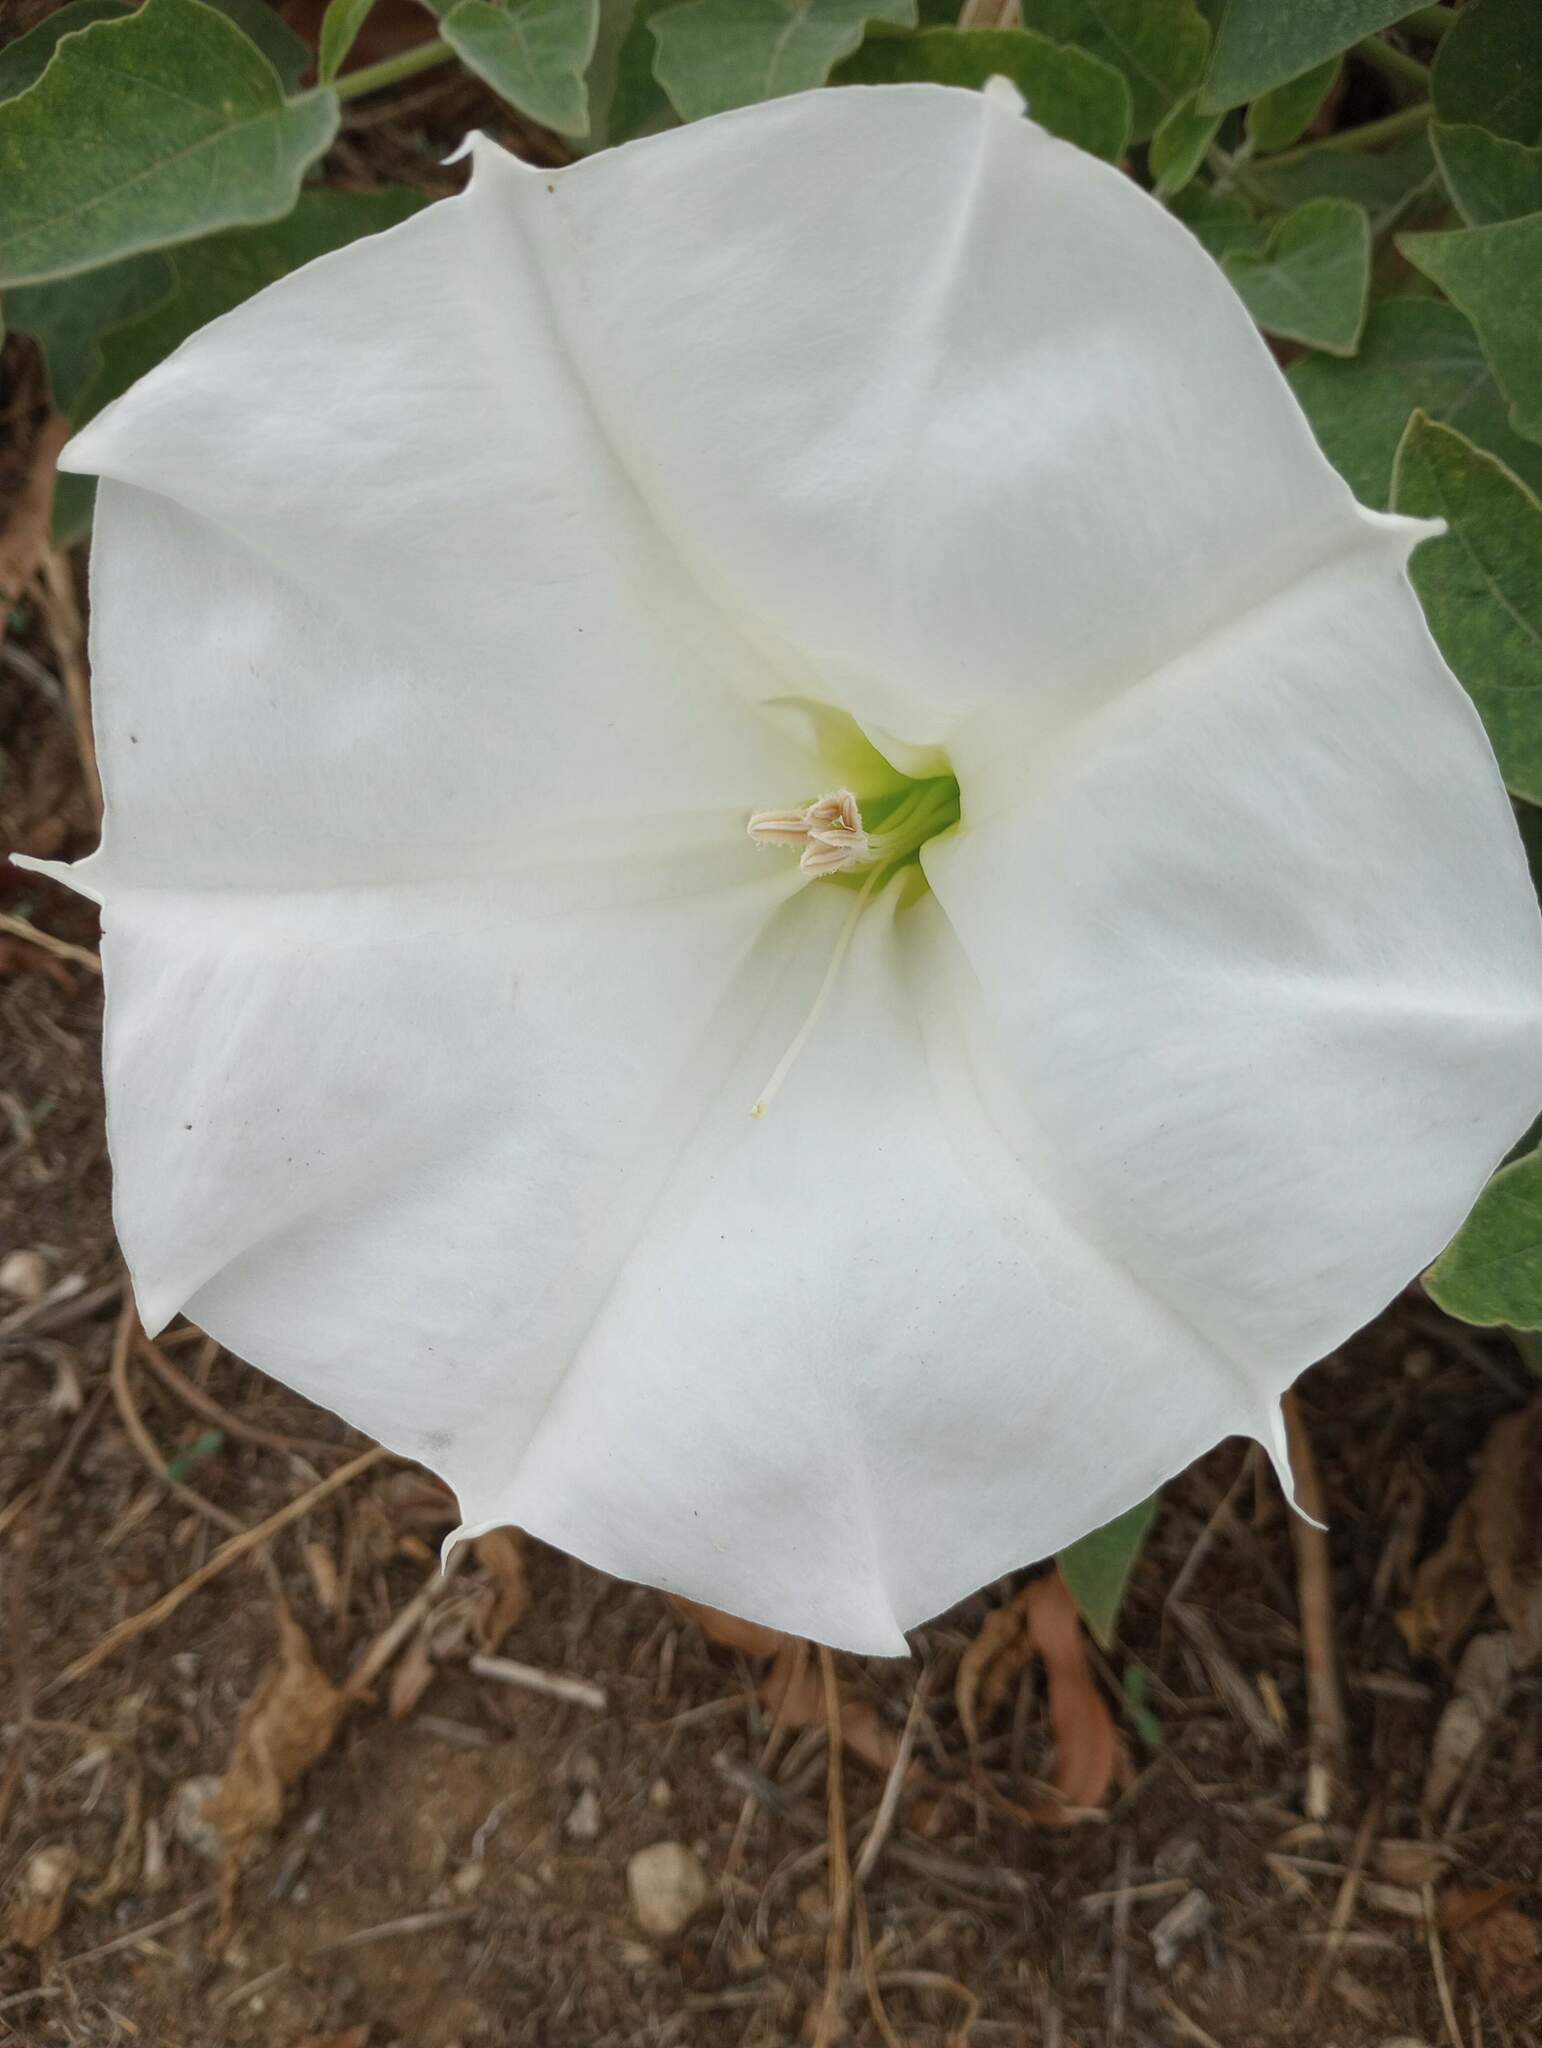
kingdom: Plantae
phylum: Tracheophyta
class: Magnoliopsida
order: Solanales
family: Solanaceae
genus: Datura
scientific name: Datura wrightii
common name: Sacred thorn-apple
